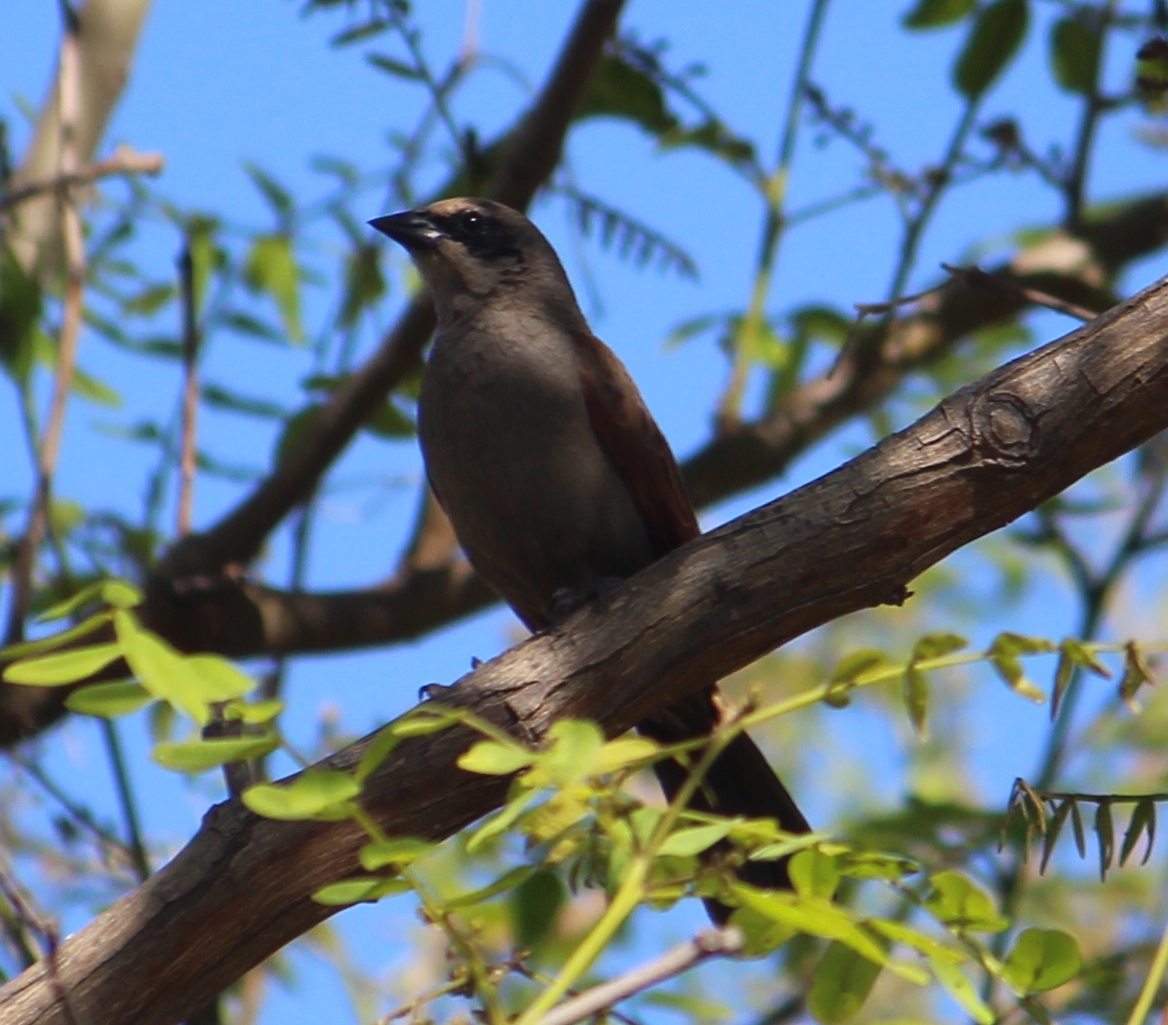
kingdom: Animalia
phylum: Chordata
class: Aves
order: Passeriformes
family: Icteridae
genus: Agelaioides
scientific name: Agelaioides badius
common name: Baywing
